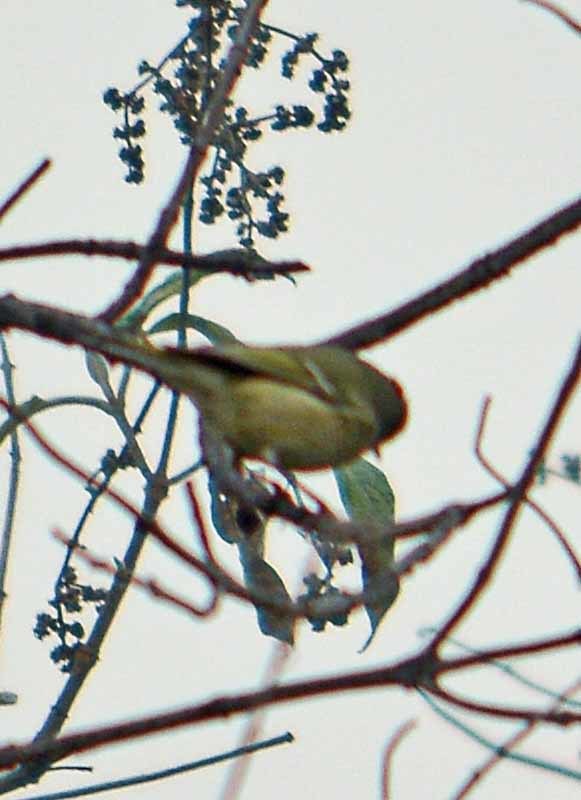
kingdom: Animalia
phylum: Chordata
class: Aves
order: Passeriformes
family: Regulidae
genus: Regulus
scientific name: Regulus calendula
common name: Ruby-crowned kinglet
